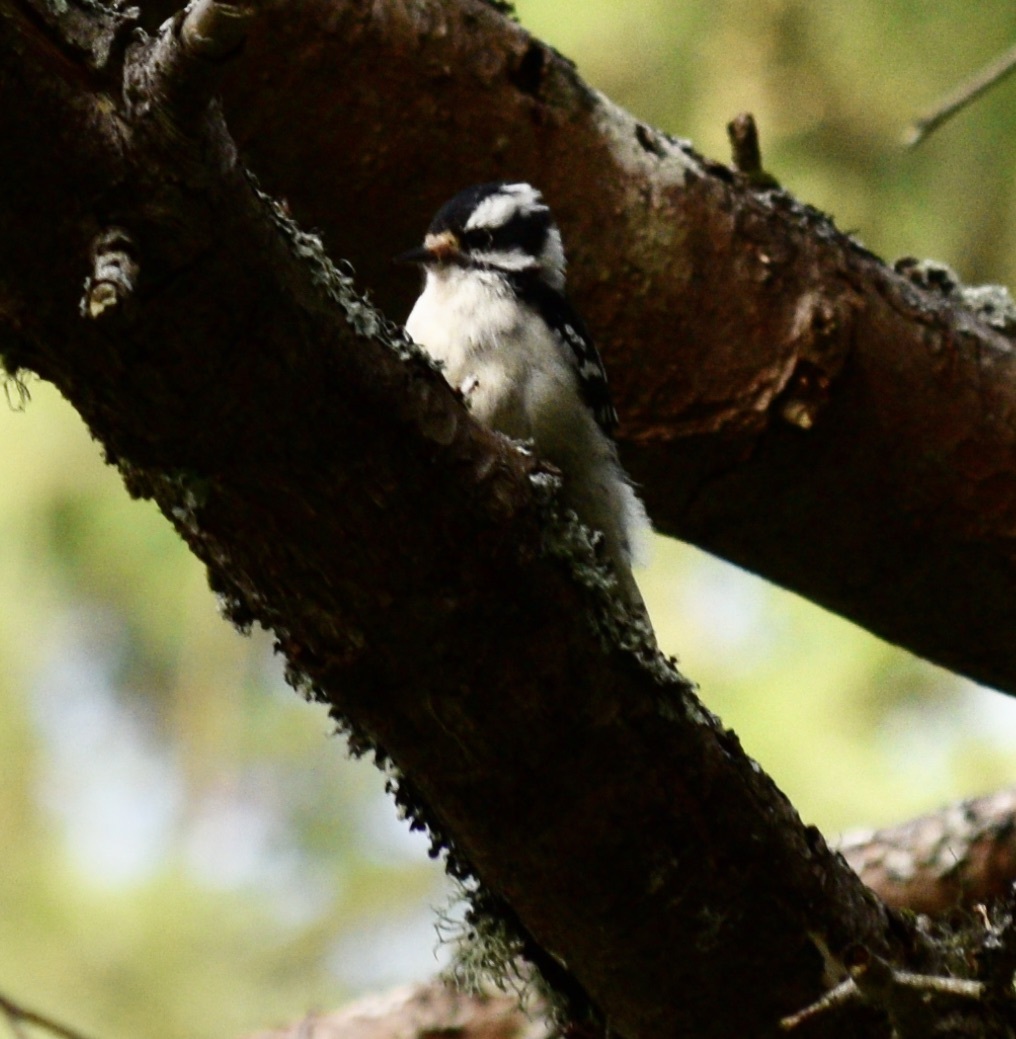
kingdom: Animalia
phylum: Chordata
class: Aves
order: Piciformes
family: Picidae
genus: Dryobates
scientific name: Dryobates pubescens
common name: Downy woodpecker
